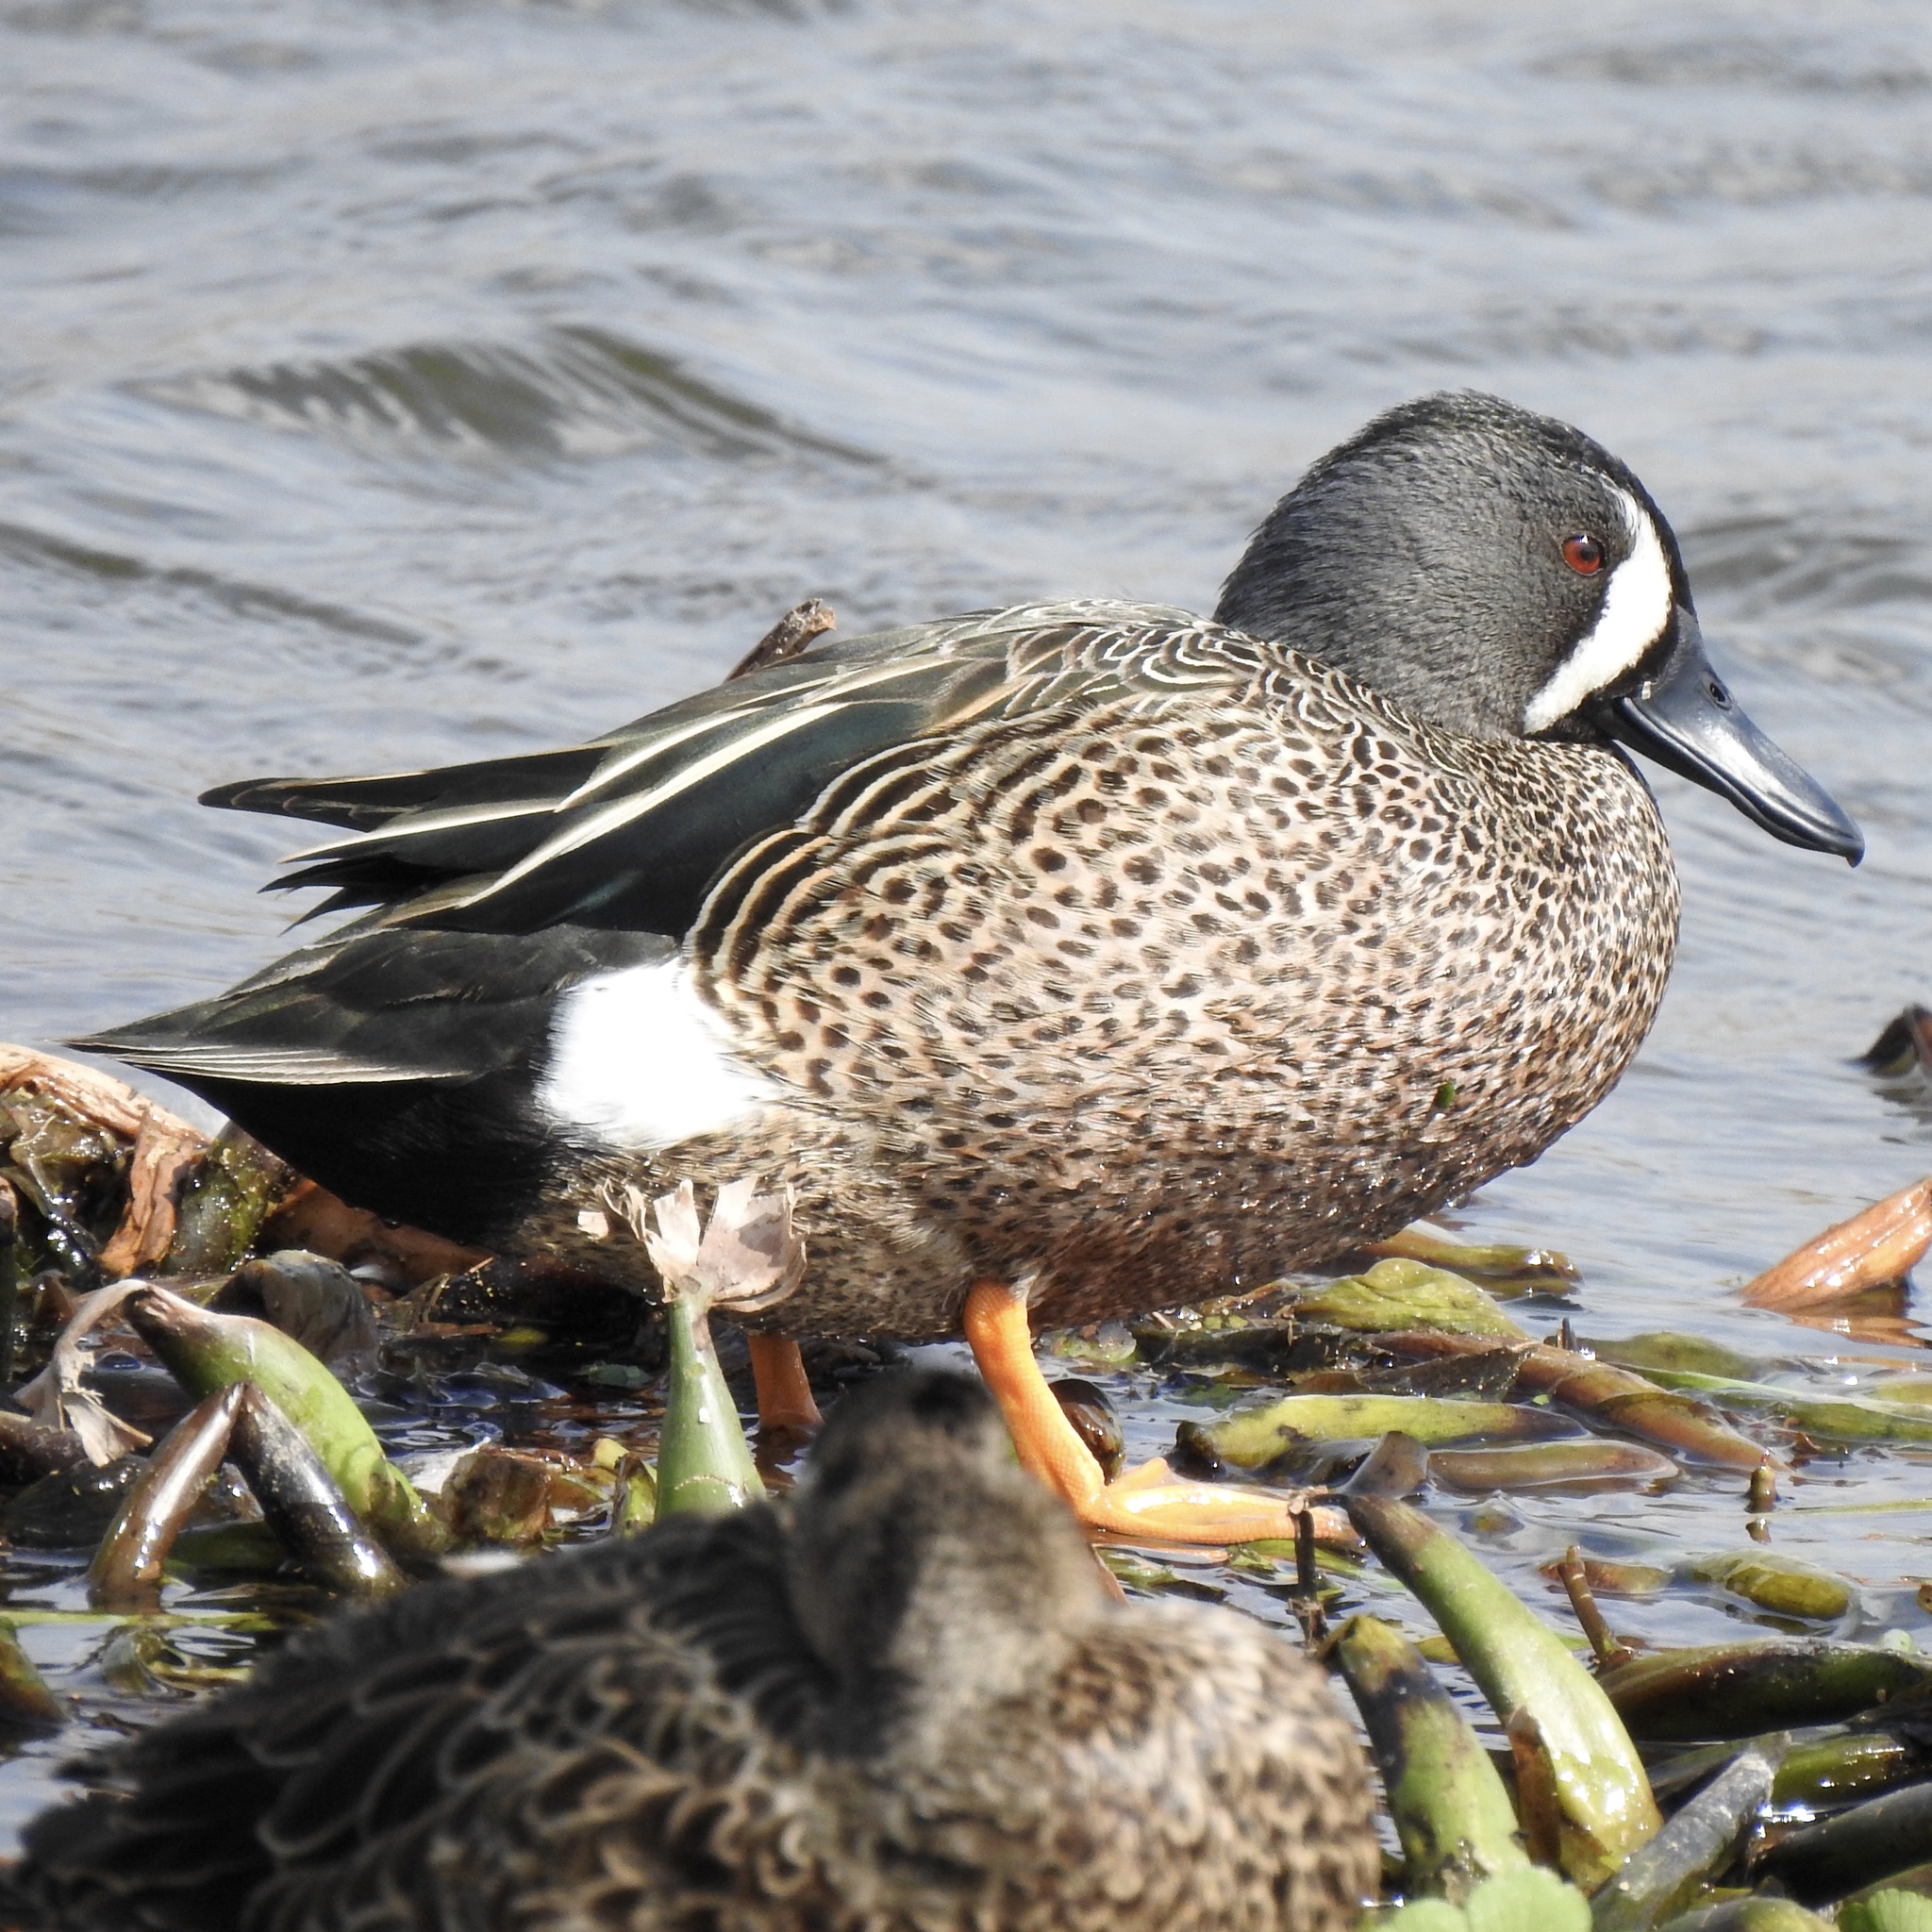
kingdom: Animalia
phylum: Chordata
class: Aves
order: Anseriformes
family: Anatidae
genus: Spatula
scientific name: Spatula discors
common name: Blue-winged teal
